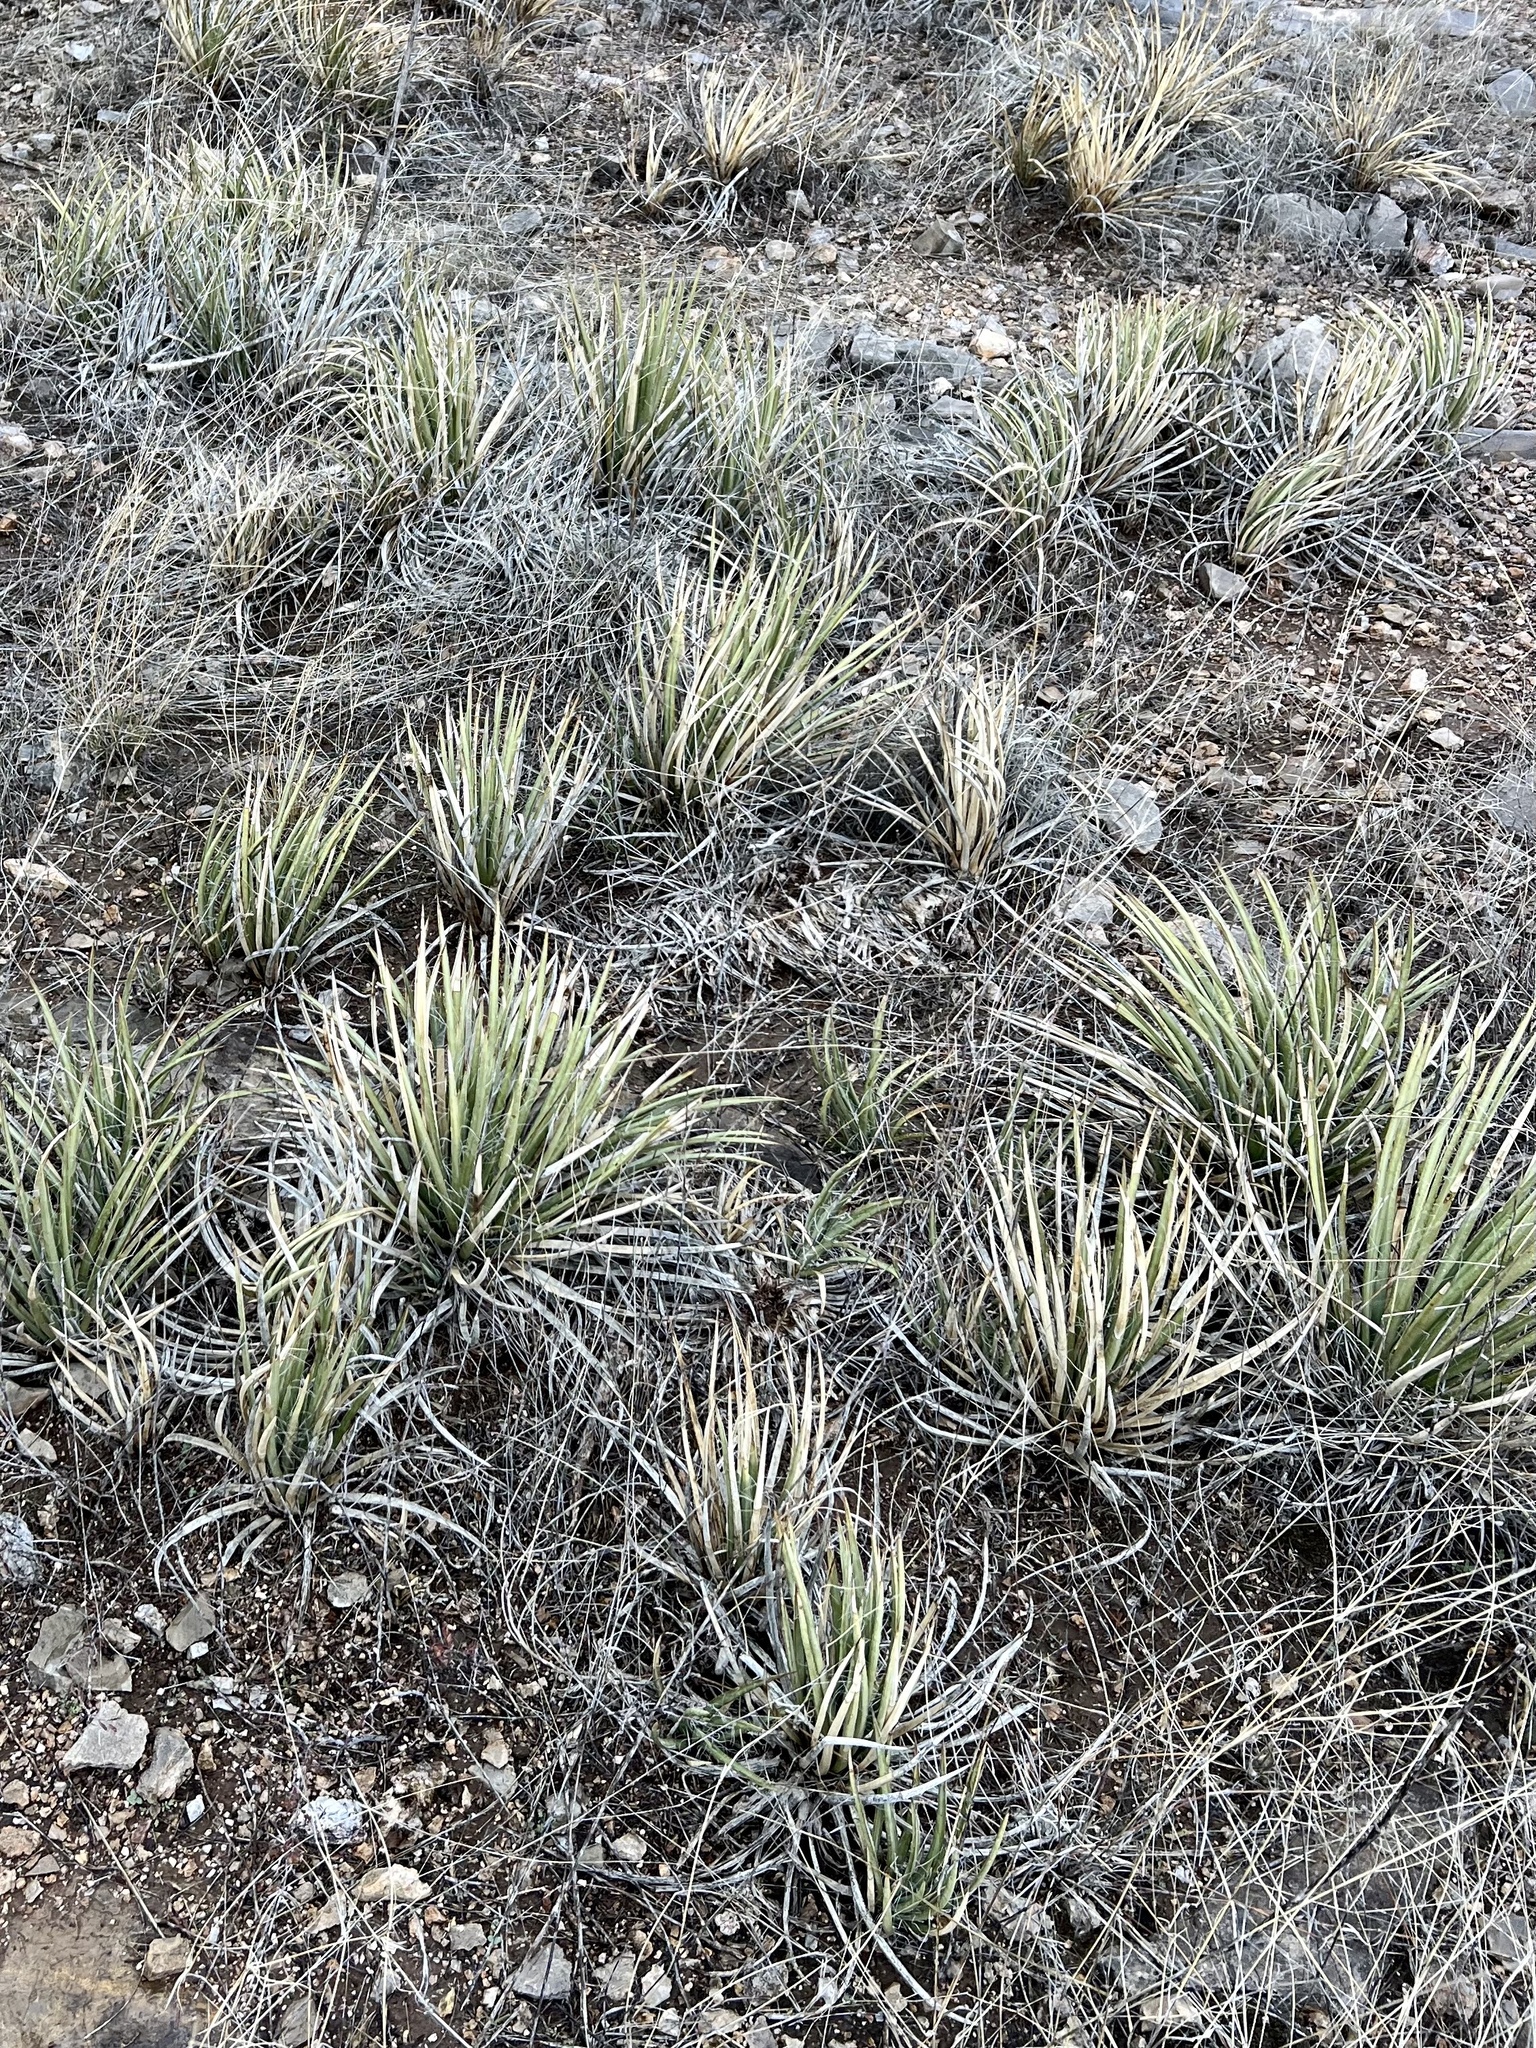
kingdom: Plantae
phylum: Tracheophyta
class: Liliopsida
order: Asparagales
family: Asparagaceae
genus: Agave
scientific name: Agave schottii
